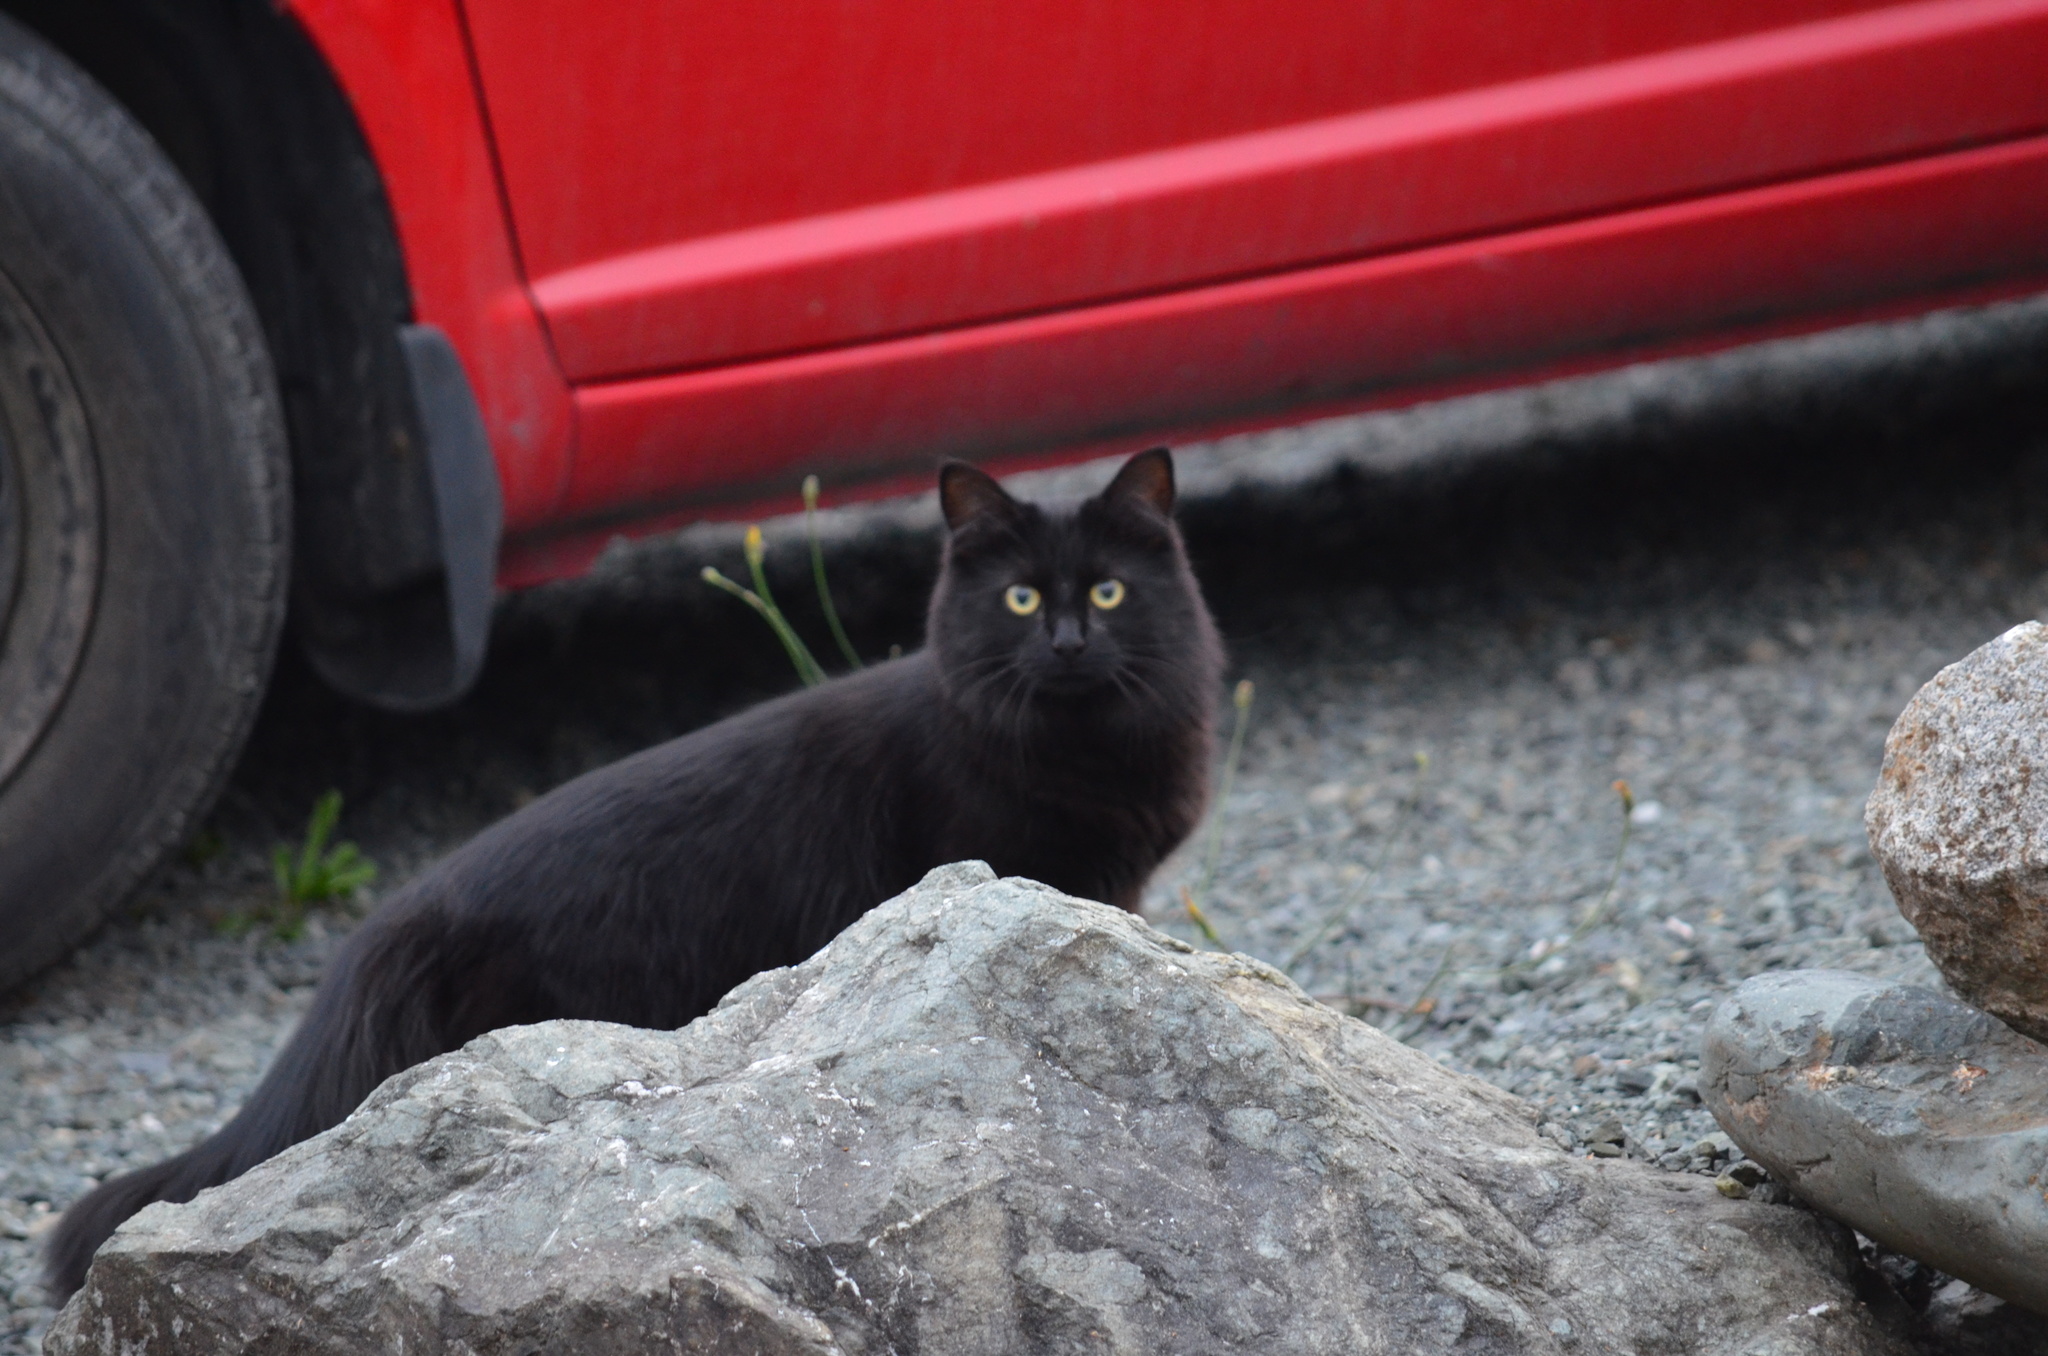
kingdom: Animalia
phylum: Chordata
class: Mammalia
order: Carnivora
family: Felidae
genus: Felis
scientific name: Felis catus
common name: Domestic cat
